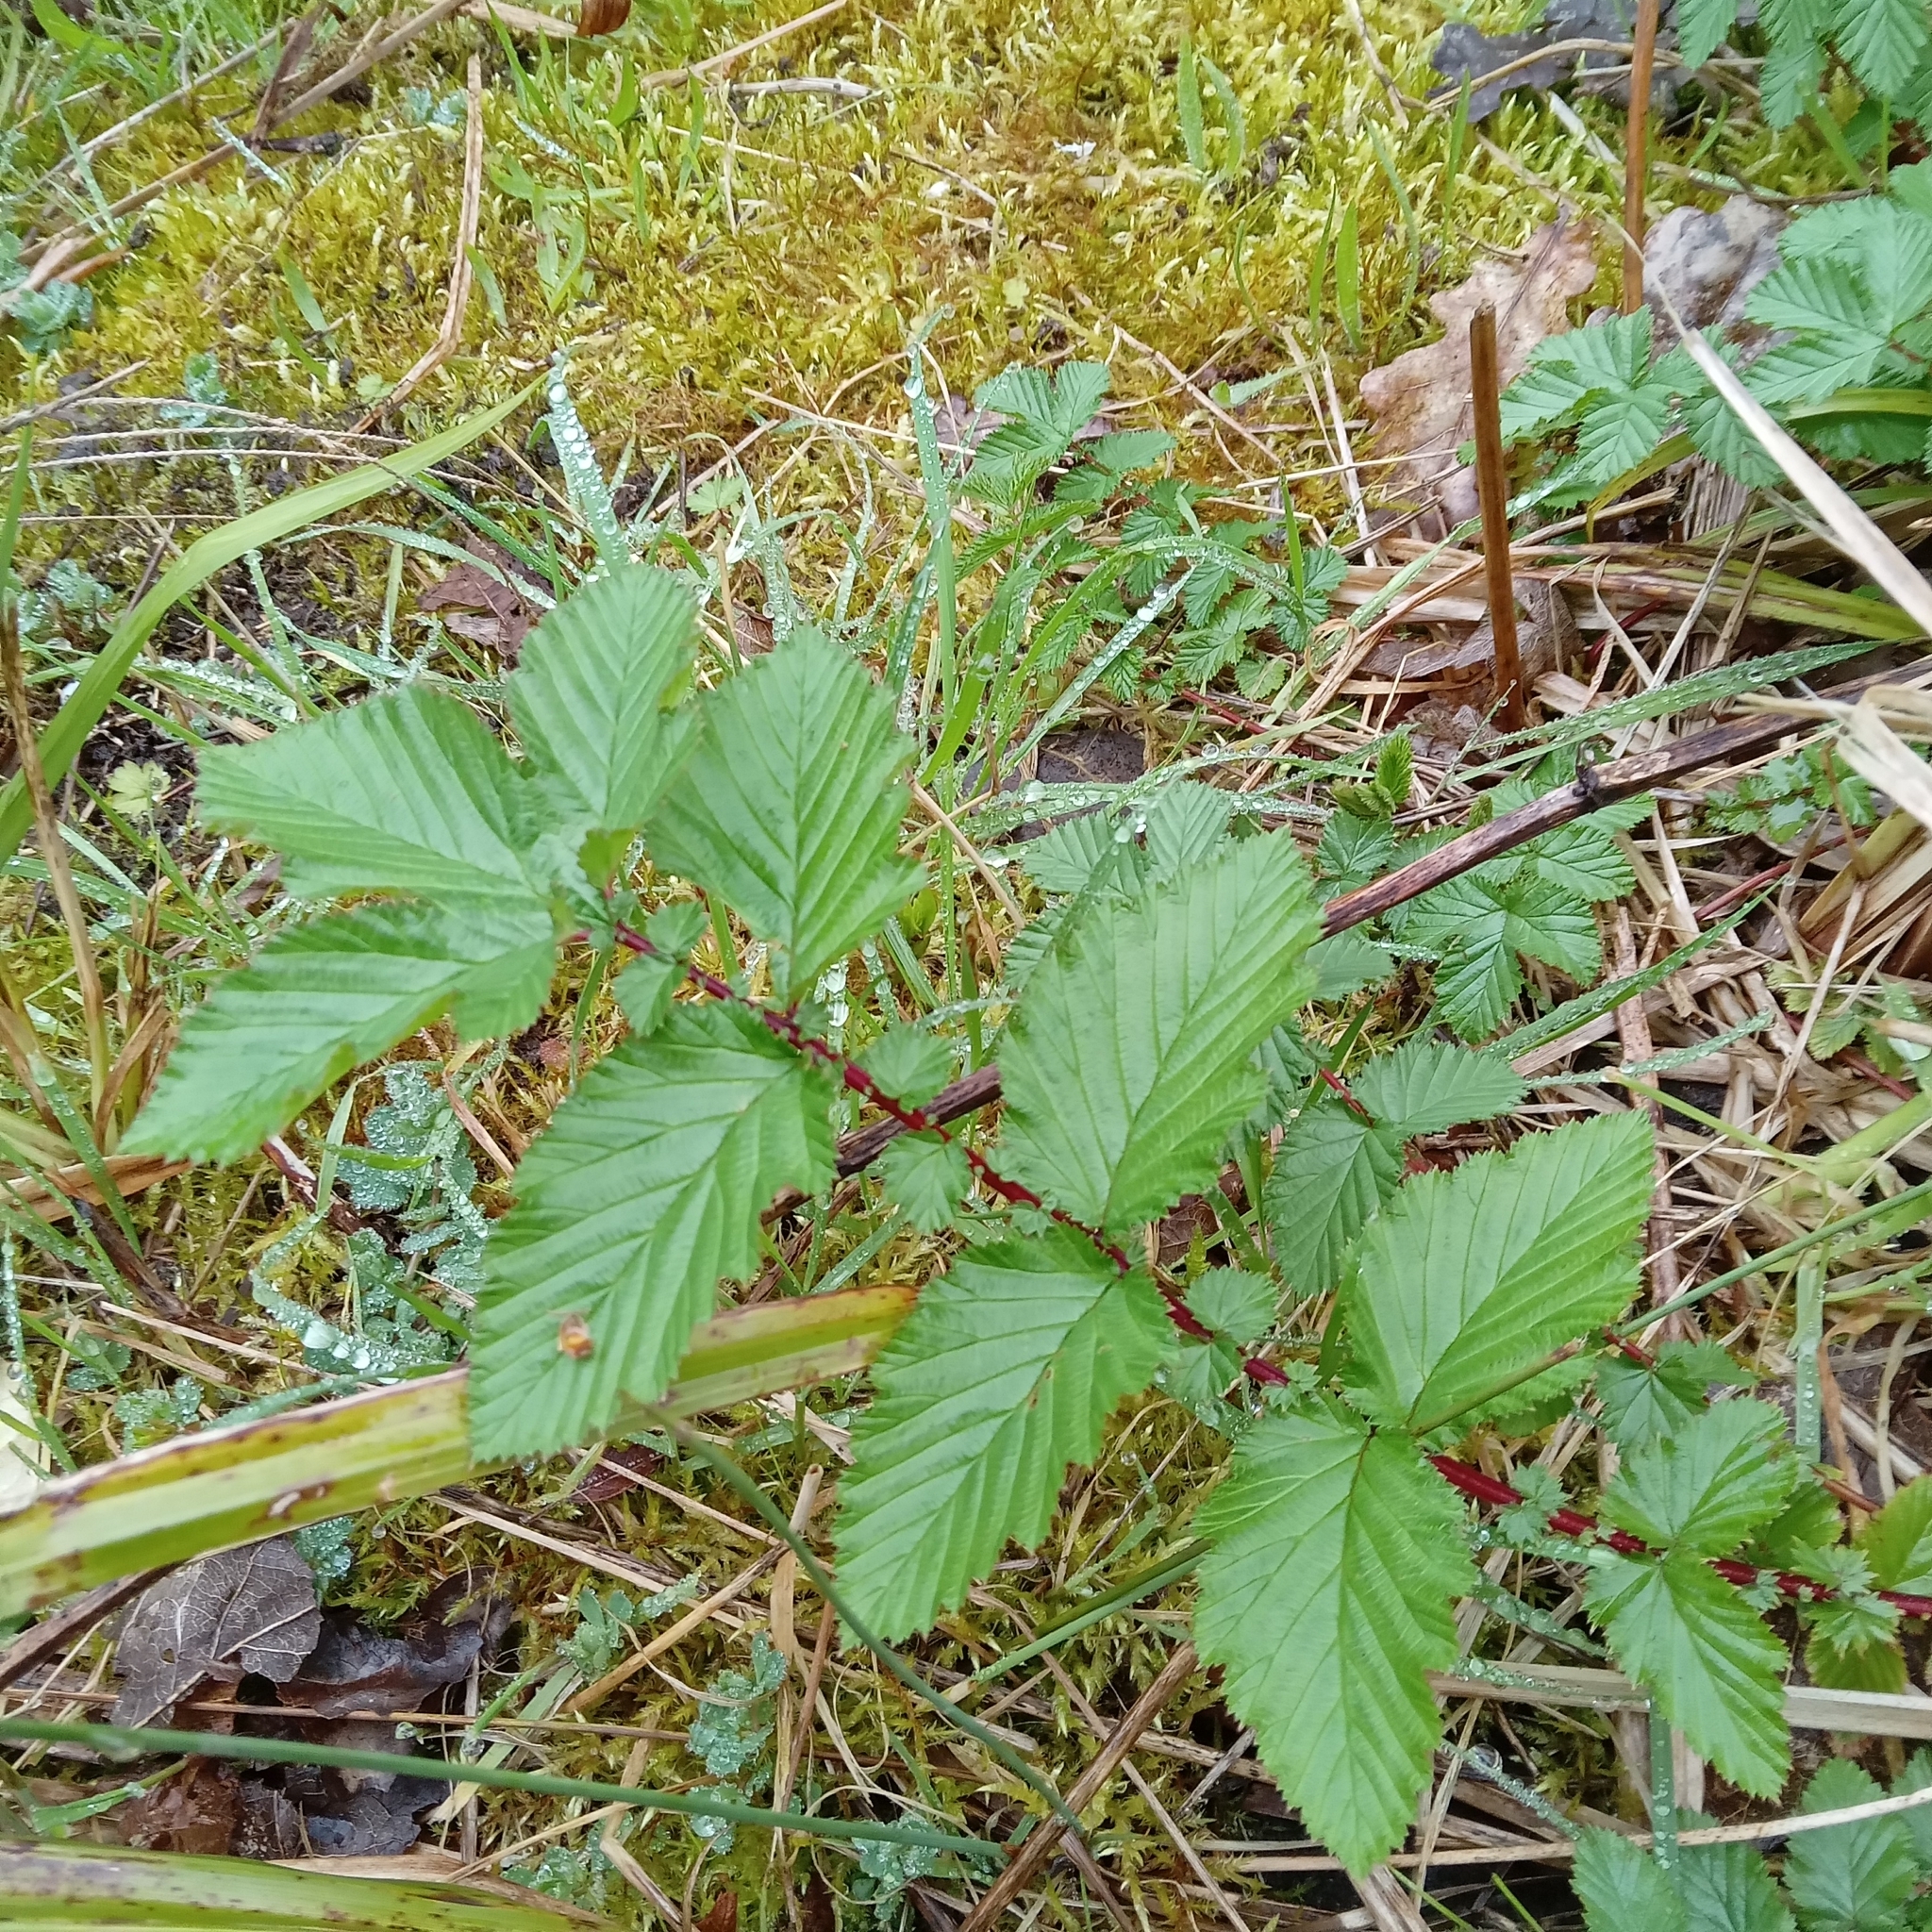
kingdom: Plantae
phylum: Tracheophyta
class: Magnoliopsida
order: Rosales
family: Rosaceae
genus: Filipendula
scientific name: Filipendula ulmaria
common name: Meadowsweet
